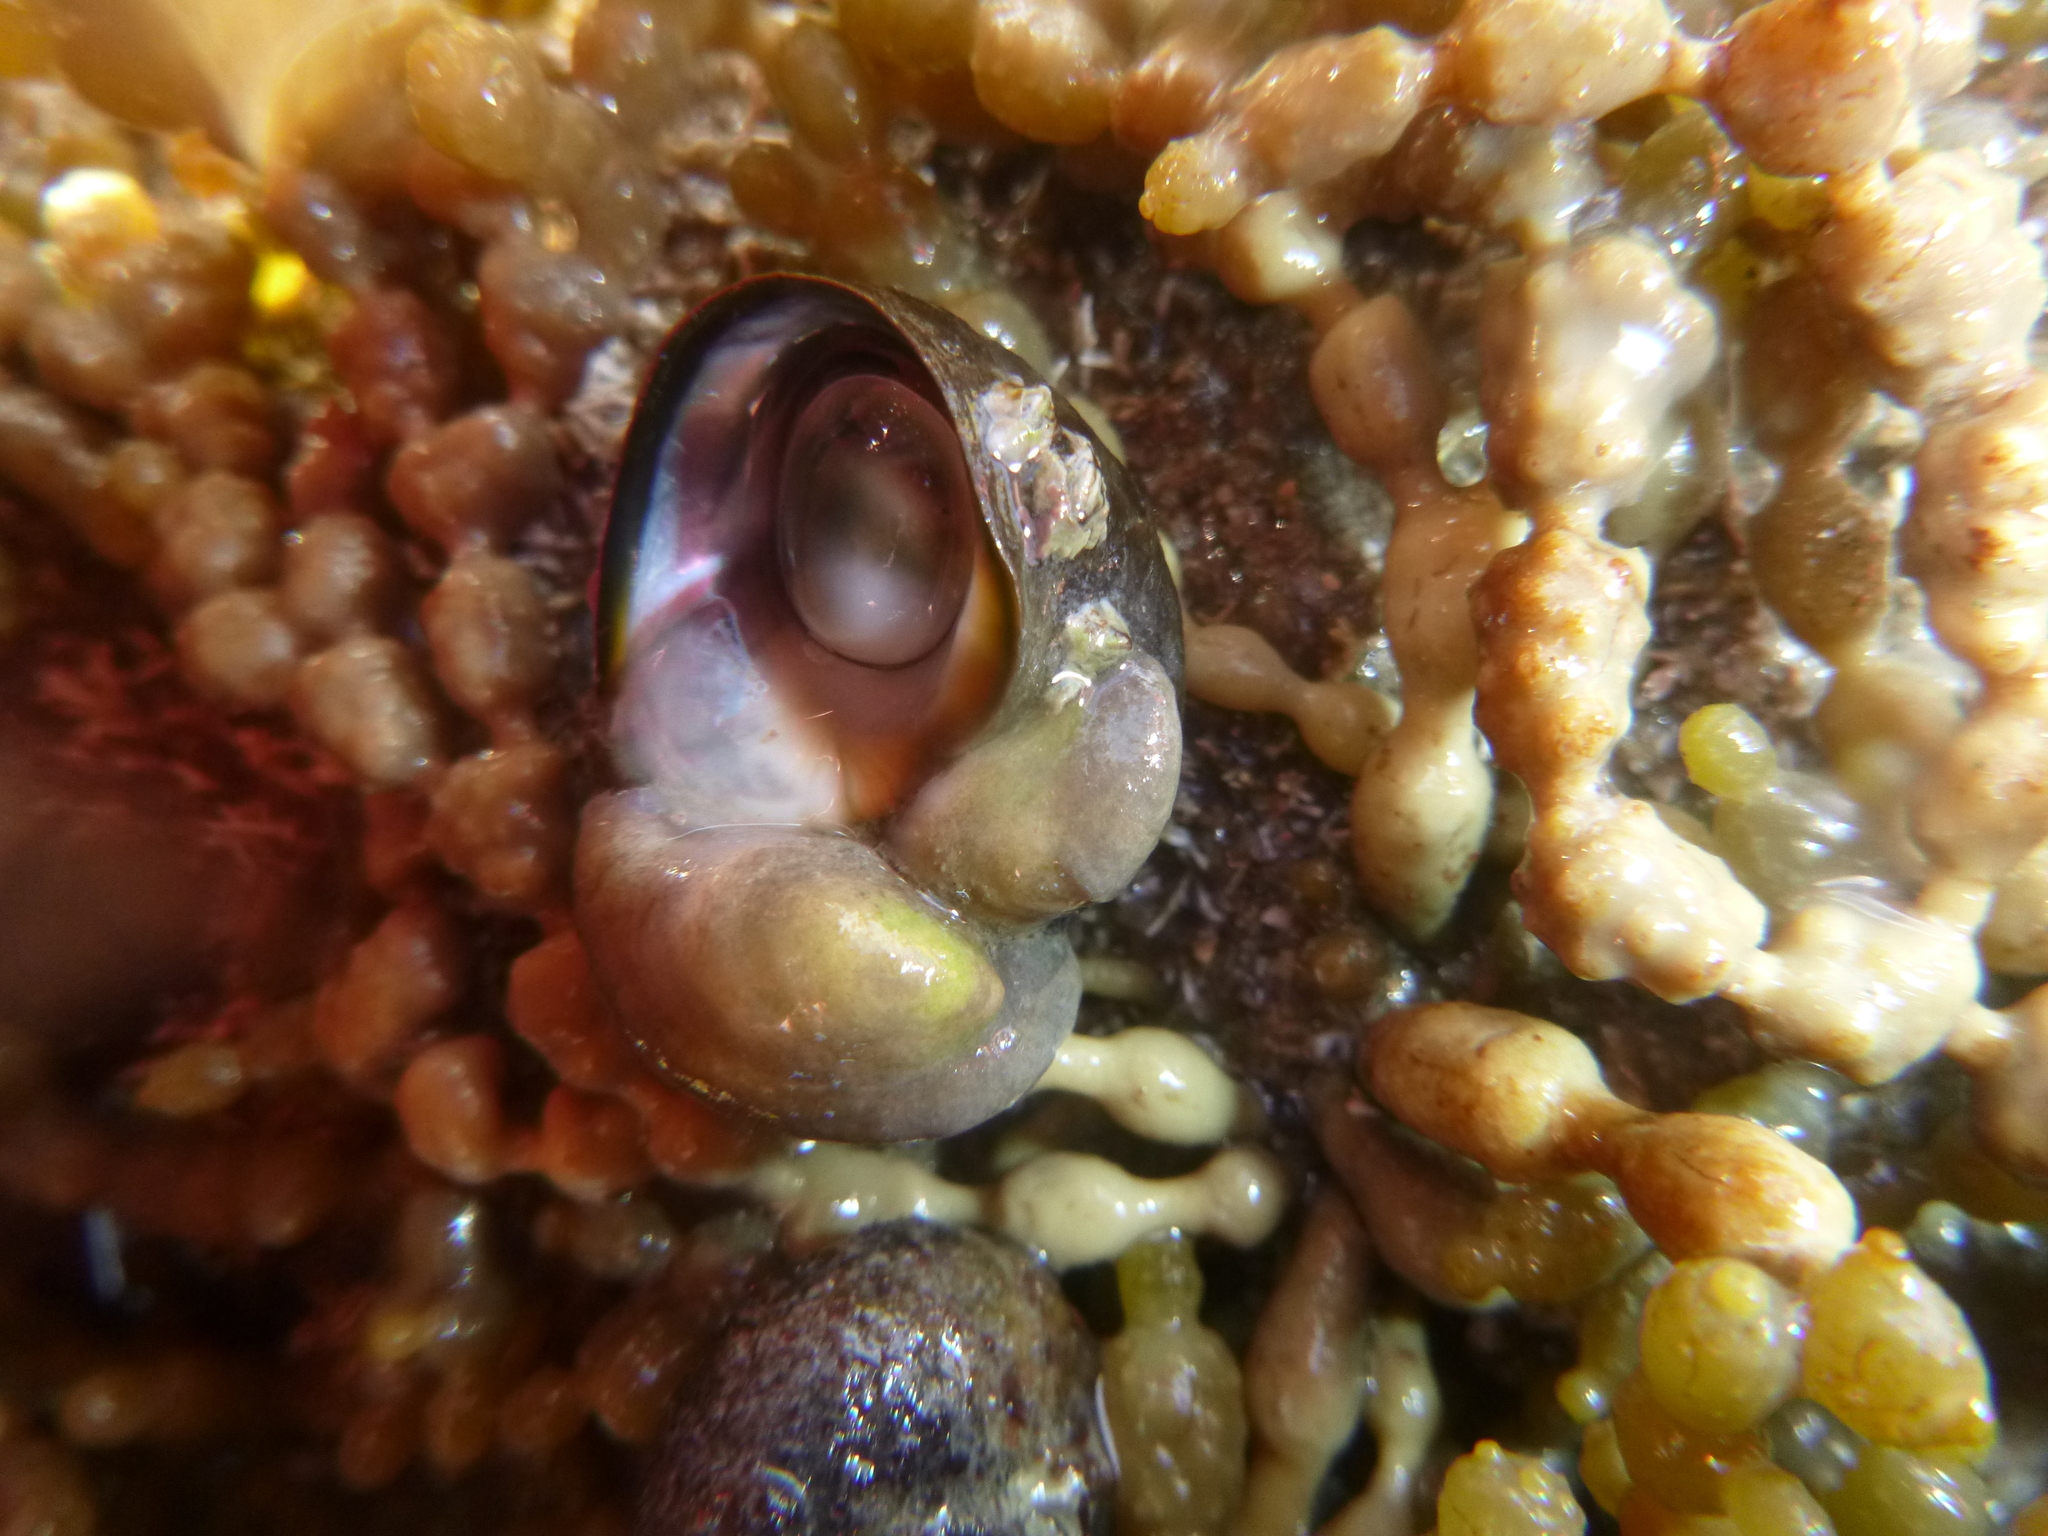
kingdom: Animalia
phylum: Mollusca
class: Gastropoda
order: Littorinimorpha
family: Calyptraeidae
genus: Maoricrypta
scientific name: Maoricrypta monoxyla
